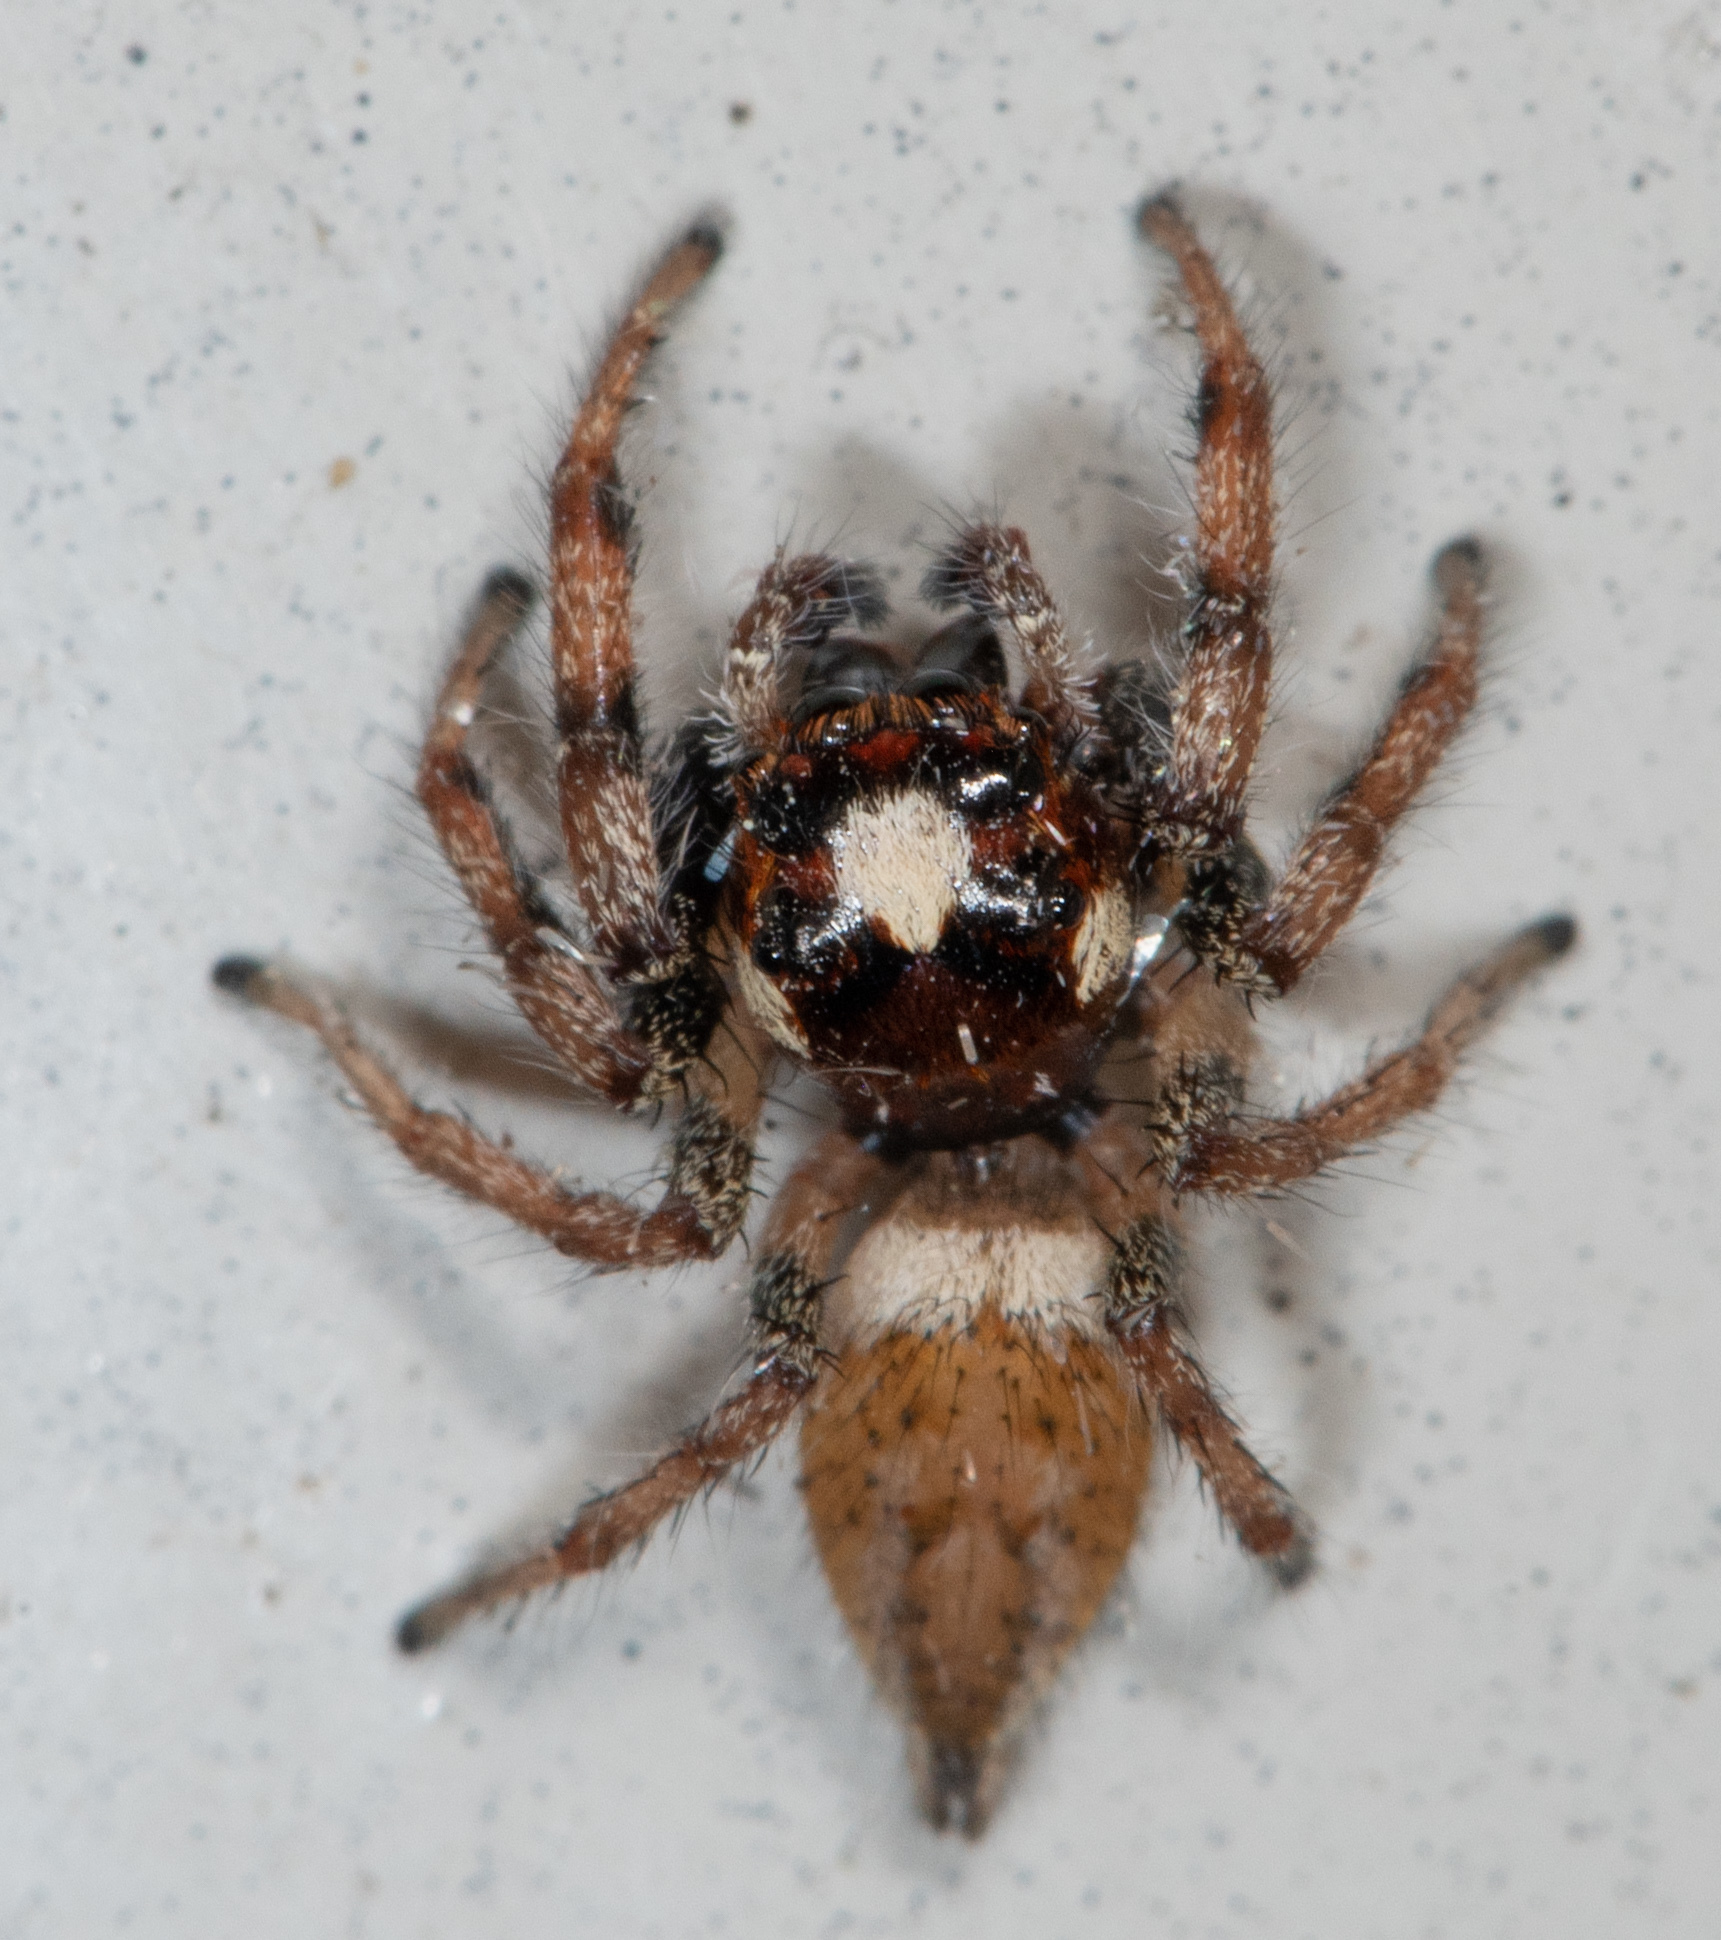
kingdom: Animalia
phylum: Arthropoda
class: Arachnida
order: Araneae
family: Salticidae
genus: Colonus
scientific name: Colonus hesperus
